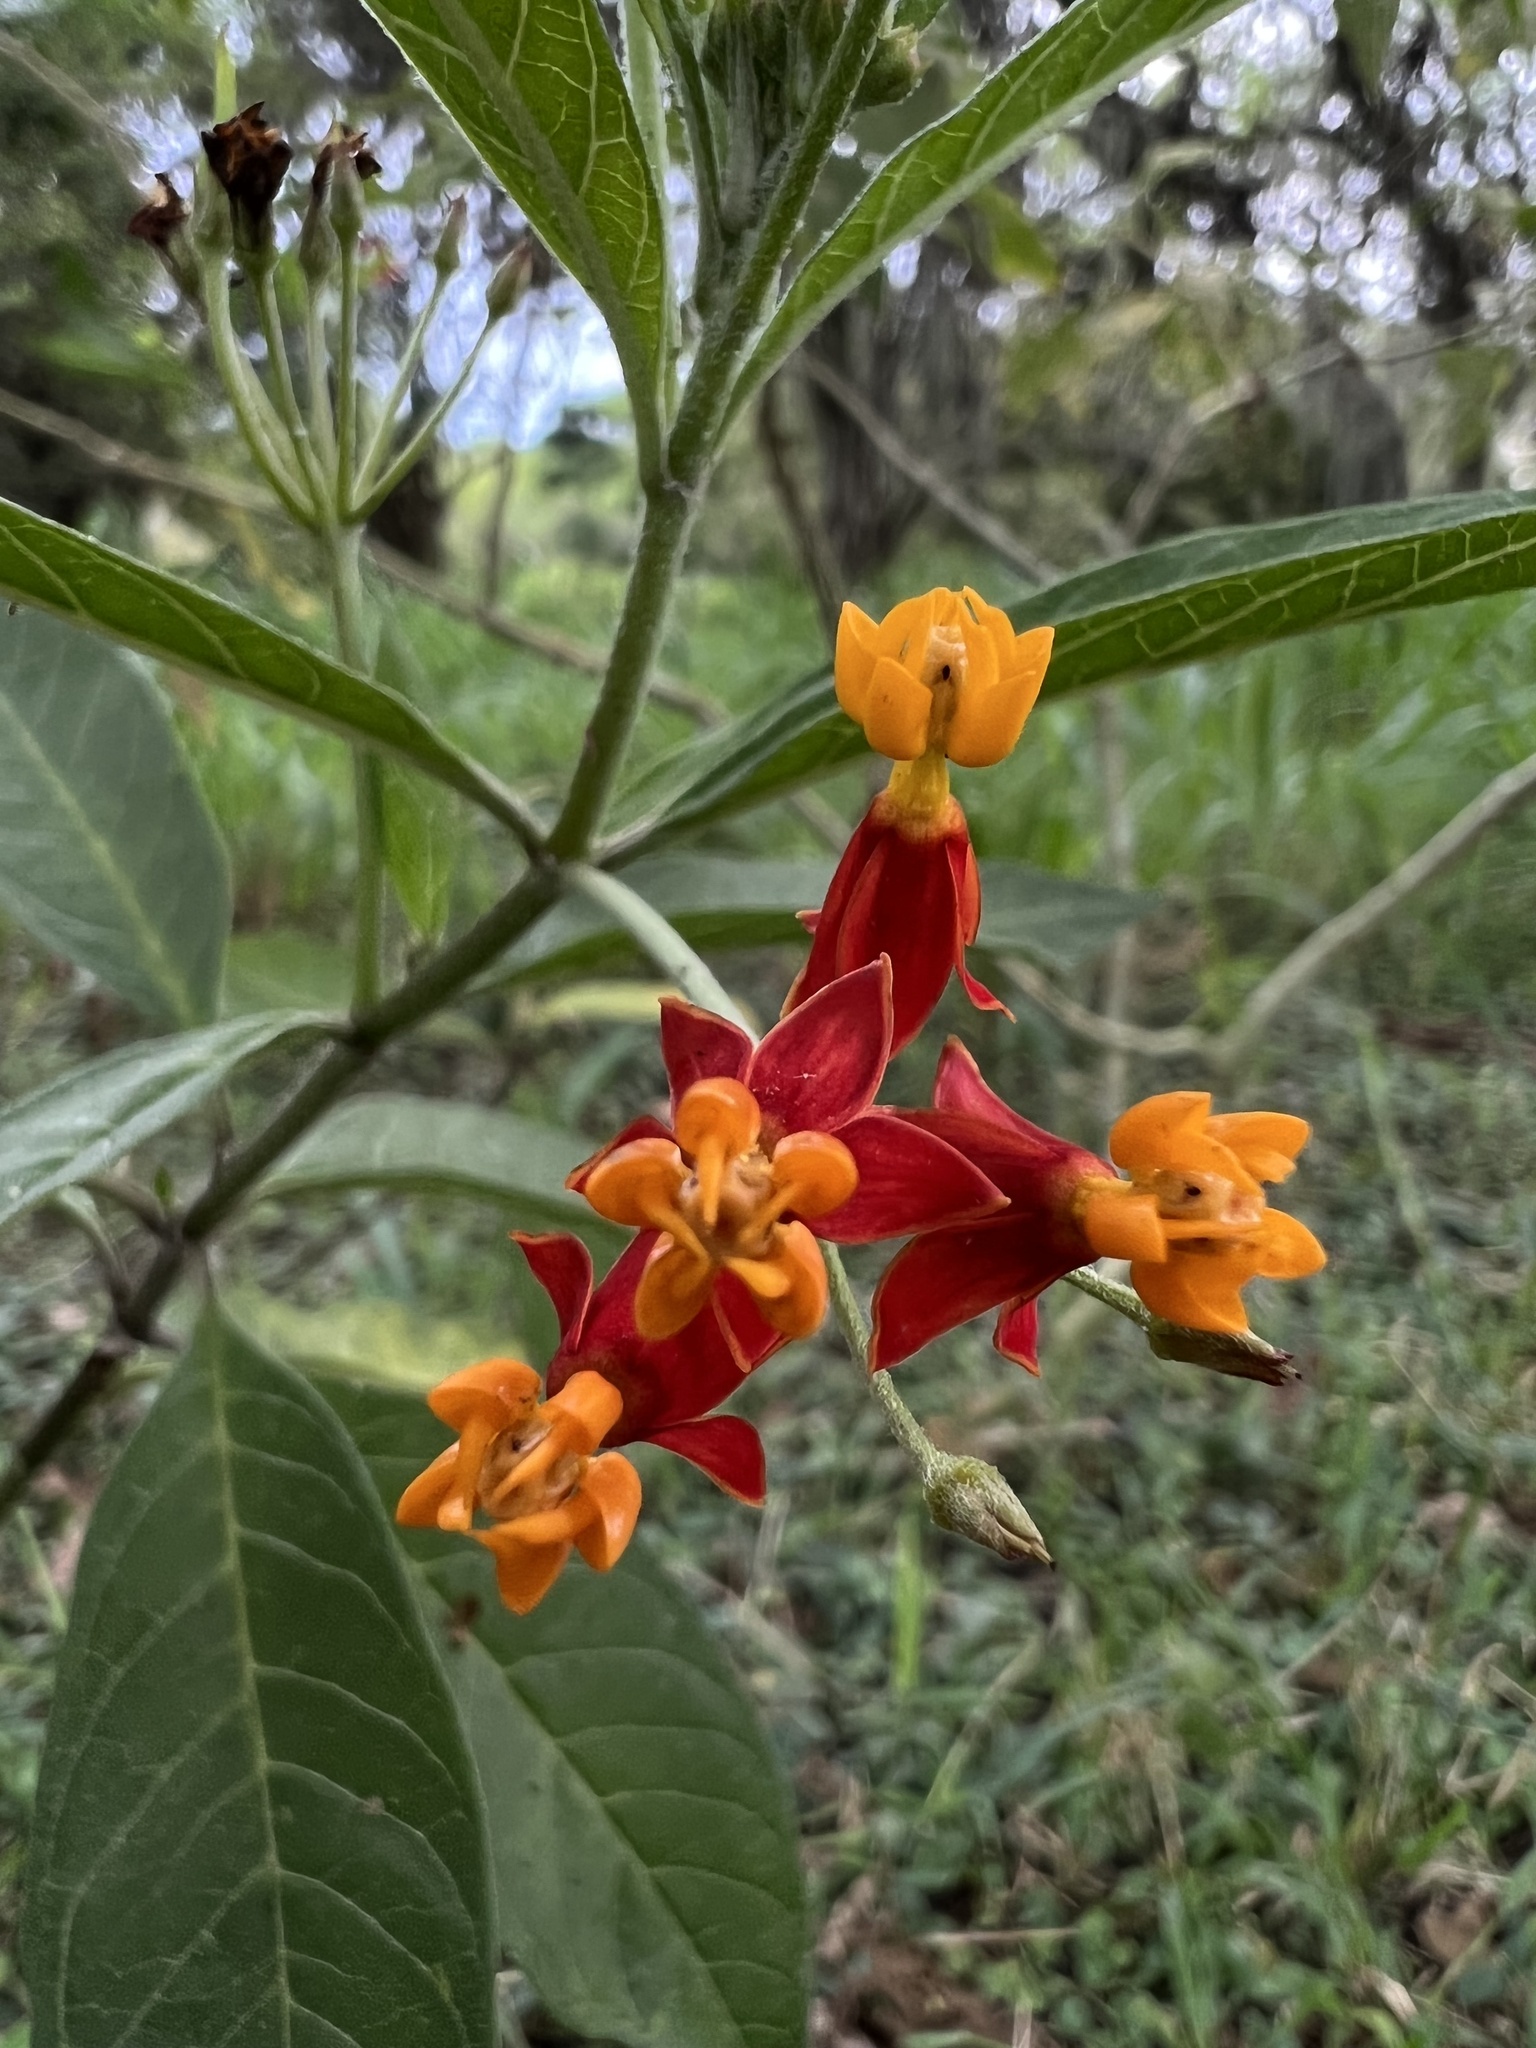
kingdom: Plantae
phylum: Tracheophyta
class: Magnoliopsida
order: Gentianales
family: Apocynaceae
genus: Asclepias
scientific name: Asclepias curassavica
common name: Bloodflower
